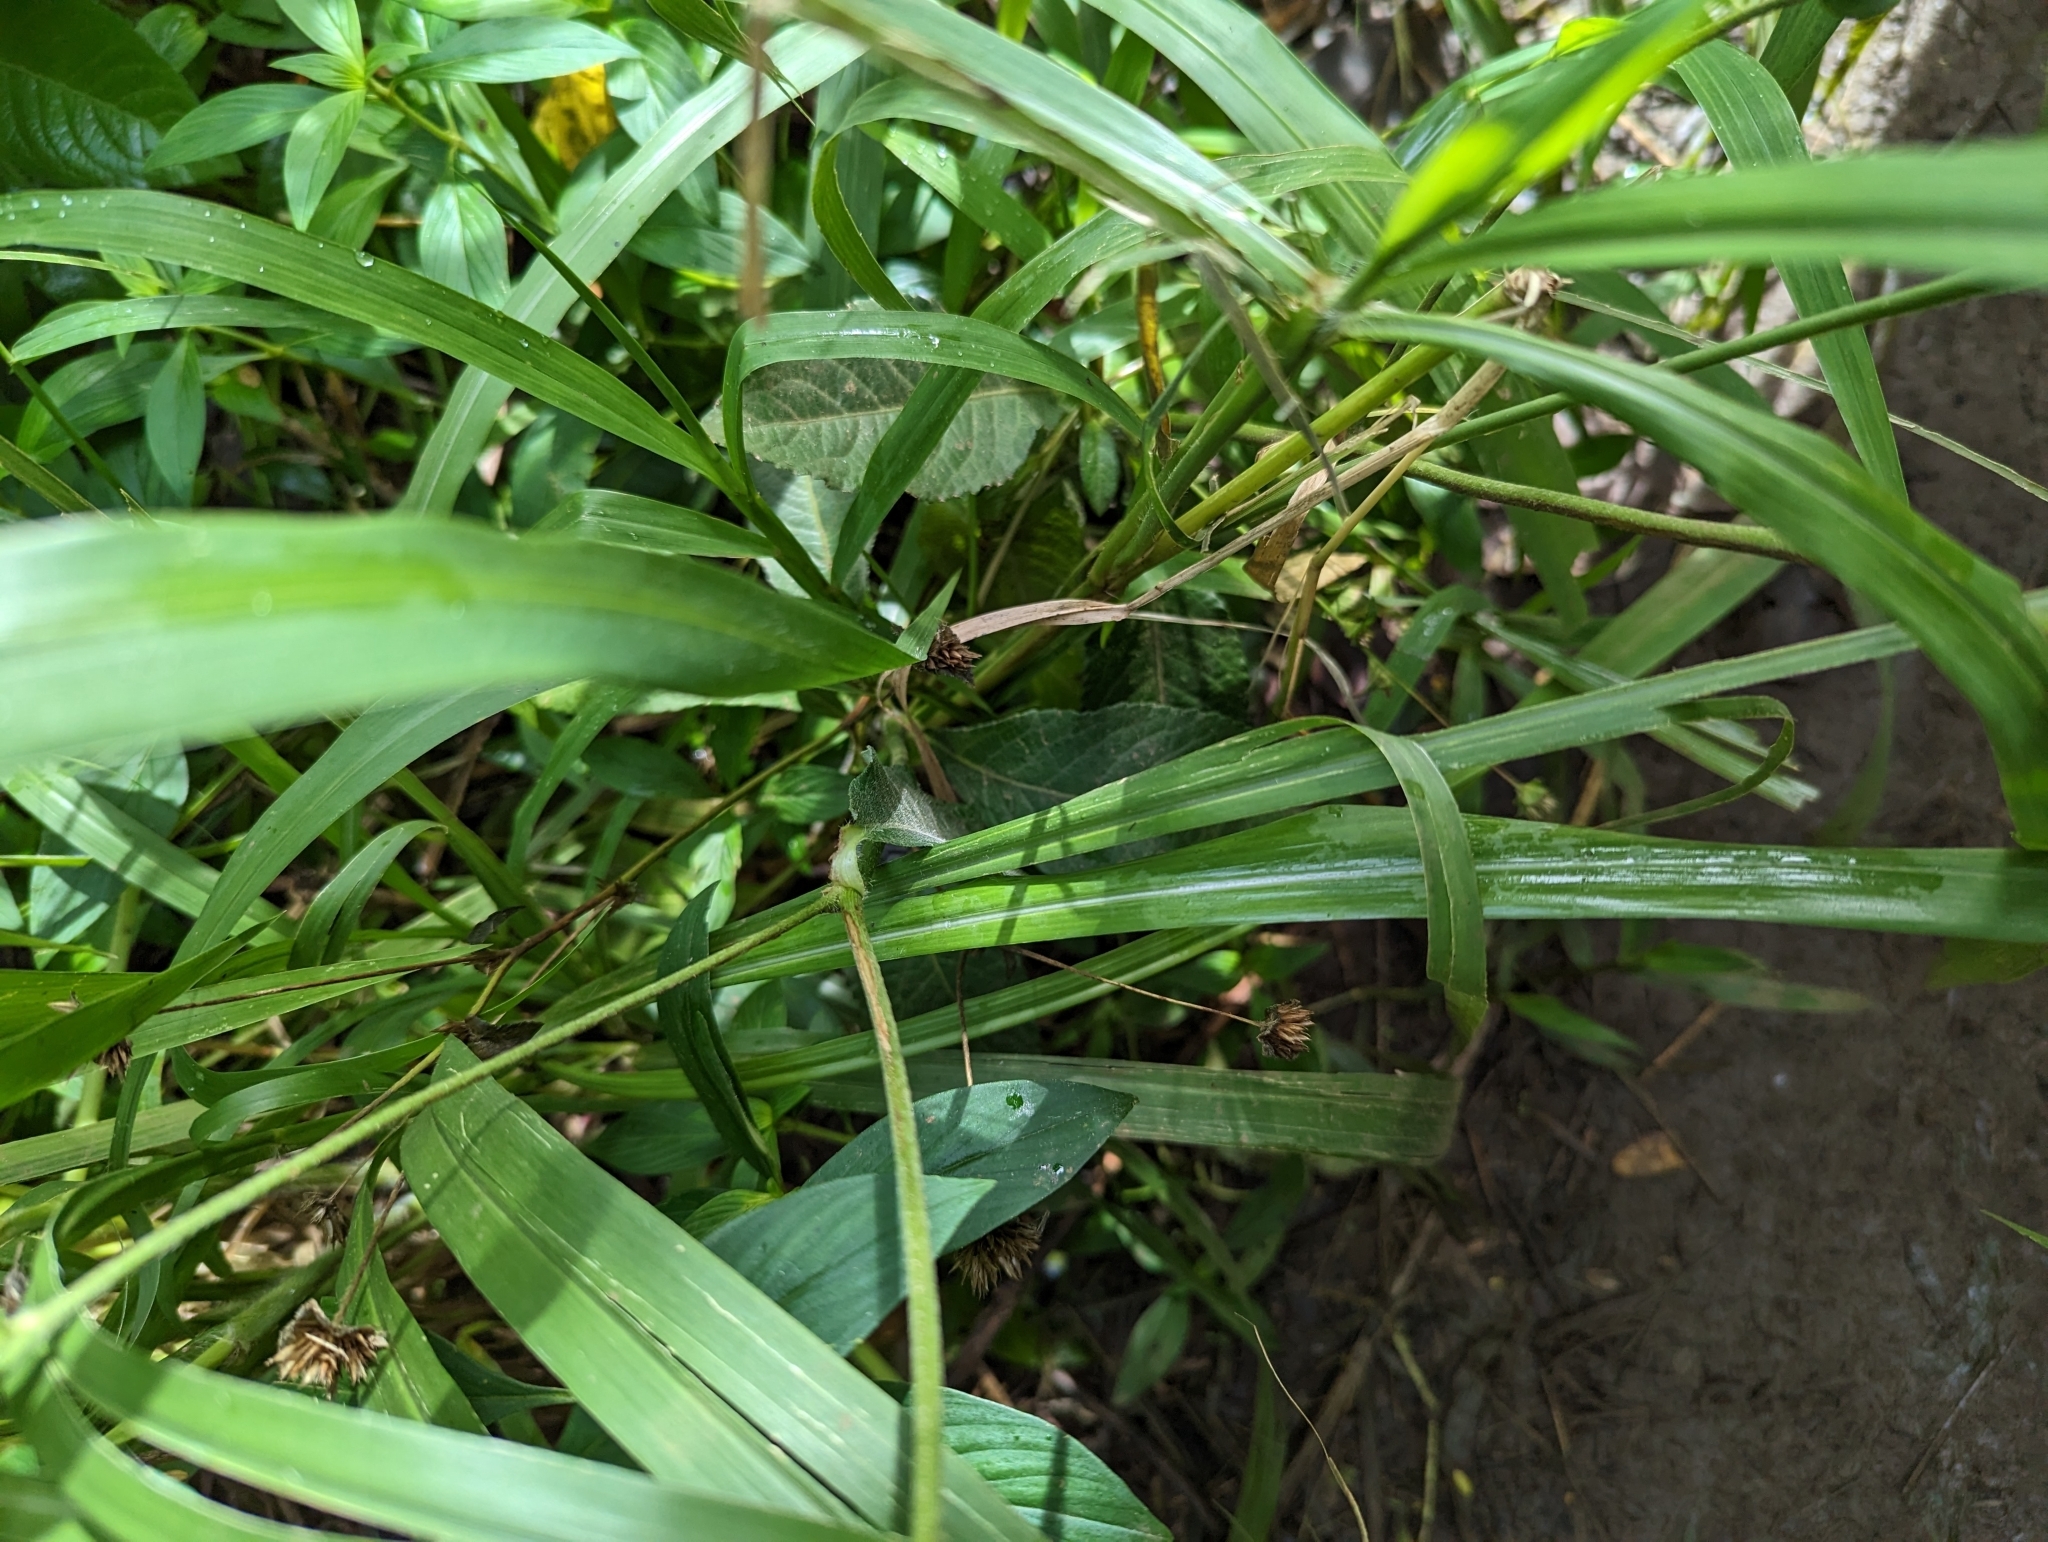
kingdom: Plantae
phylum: Tracheophyta
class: Magnoliopsida
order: Asterales
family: Asteraceae
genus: Elephantopus
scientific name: Elephantopus mollis
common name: Soft elephantsfoot
